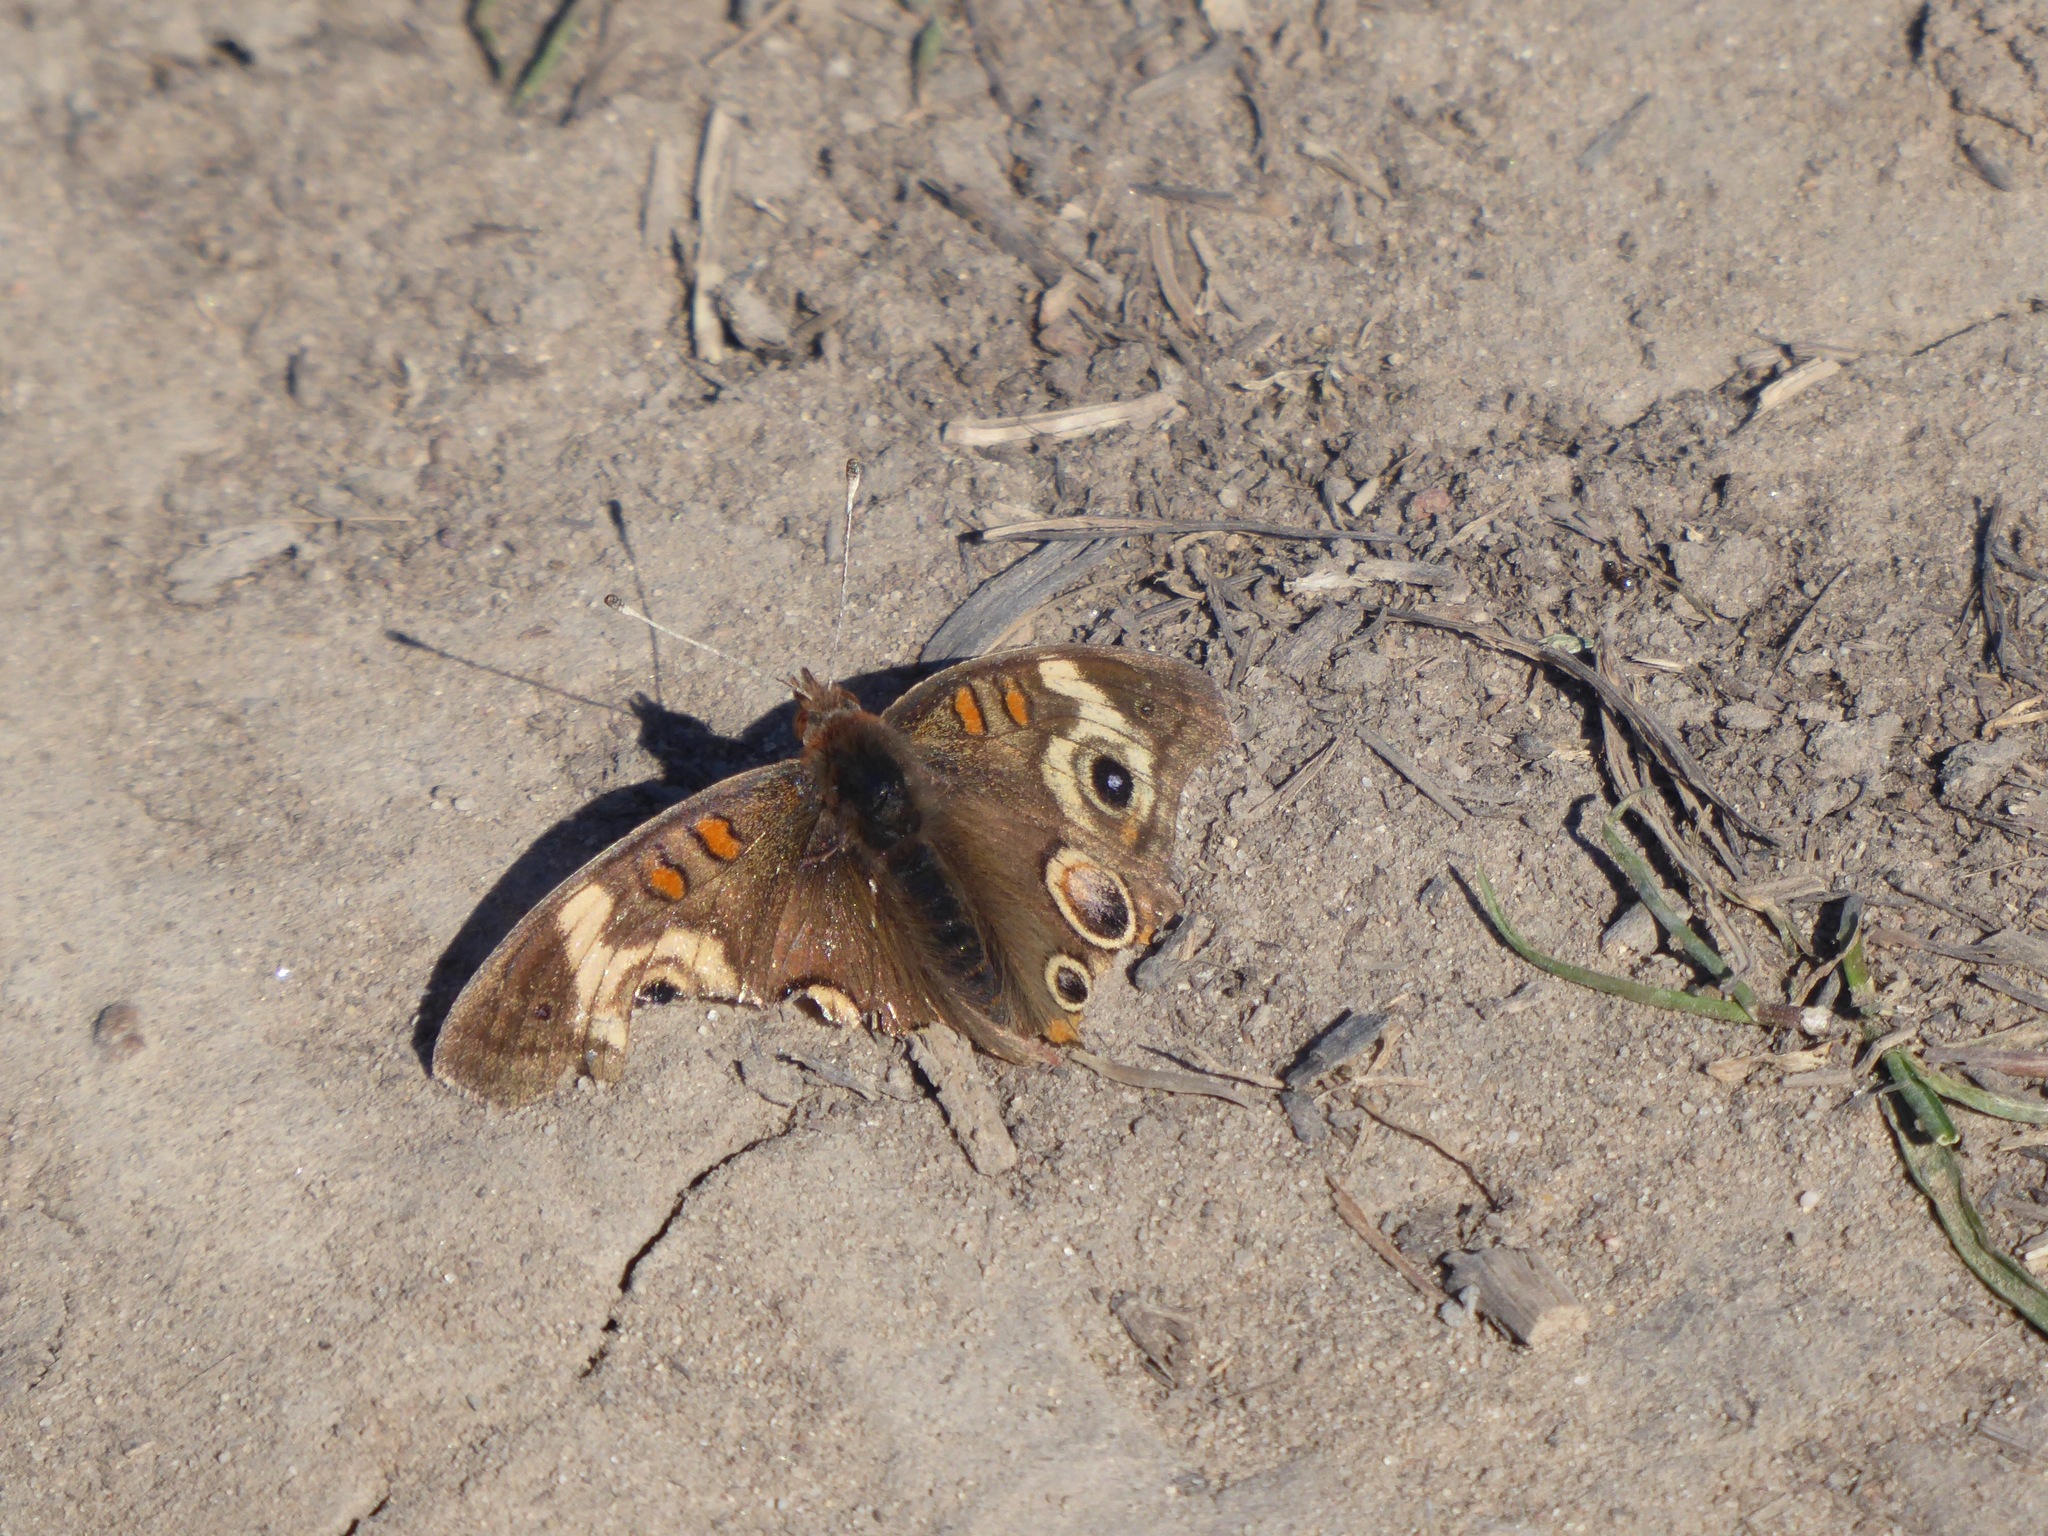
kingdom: Animalia
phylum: Arthropoda
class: Insecta
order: Lepidoptera
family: Nymphalidae
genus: Junonia
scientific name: Junonia grisea
